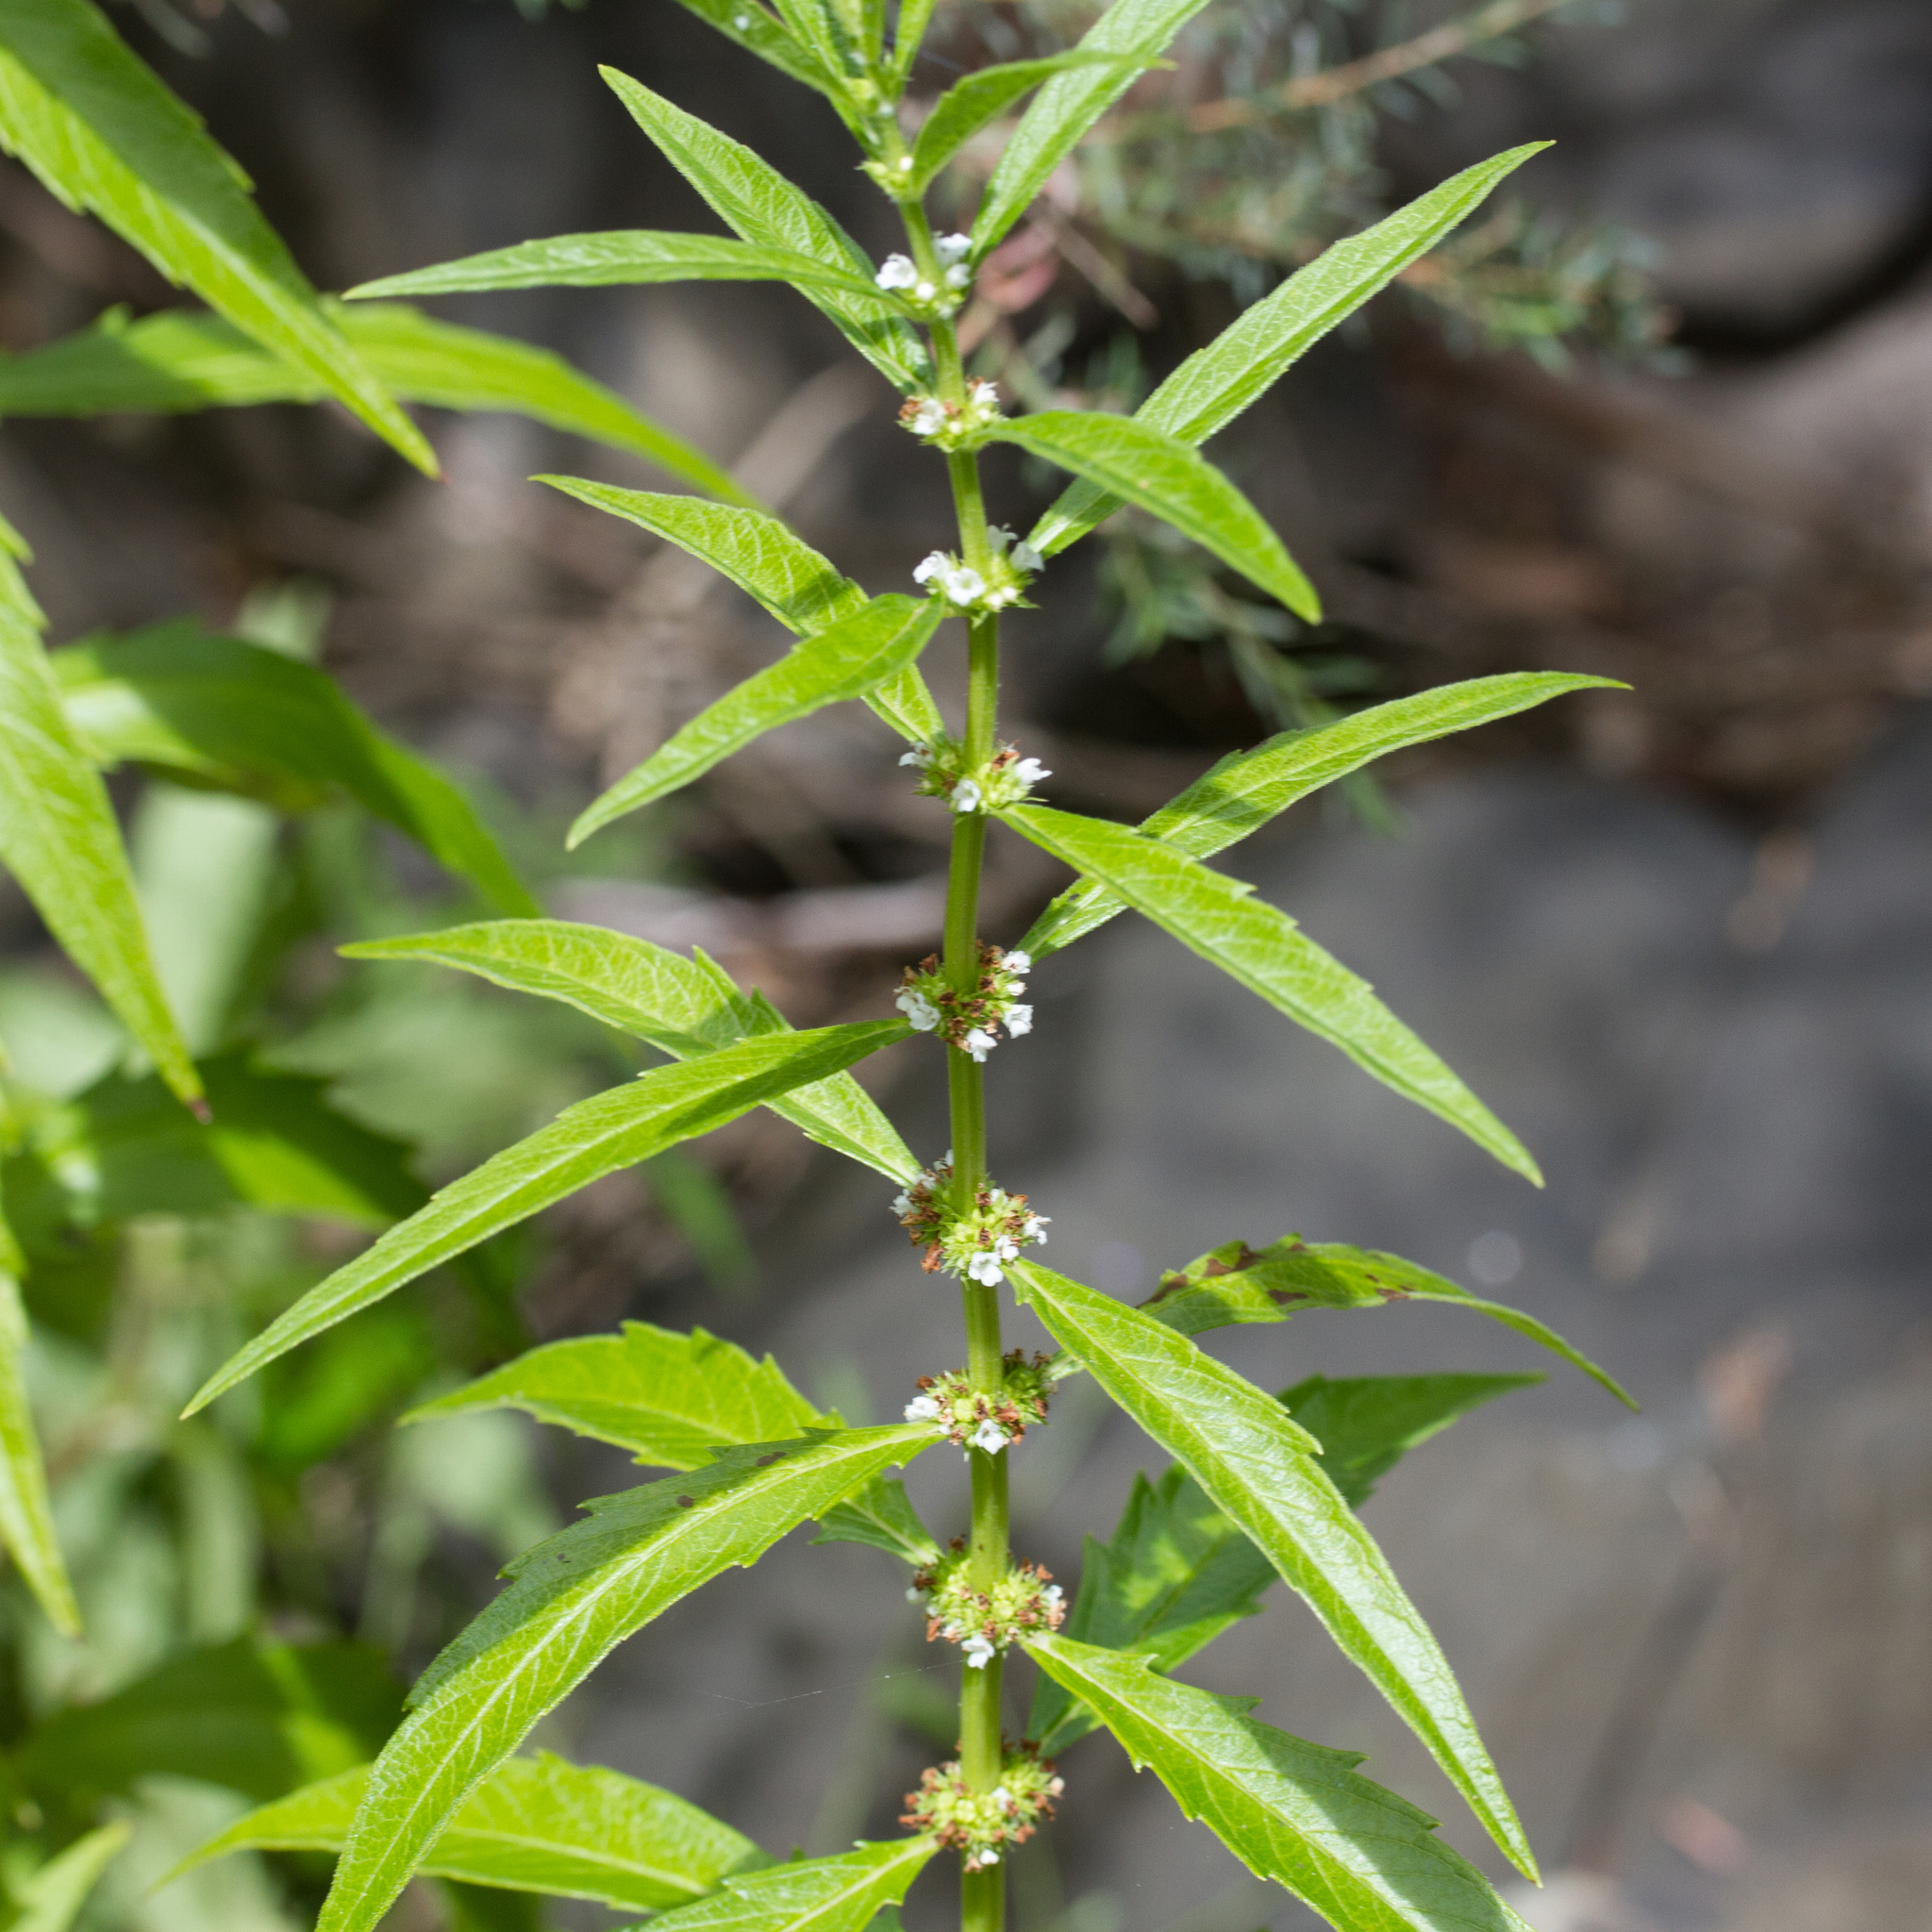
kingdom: Plantae
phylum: Tracheophyta
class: Magnoliopsida
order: Lamiales
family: Lamiaceae
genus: Lycopus
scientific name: Lycopus australis
